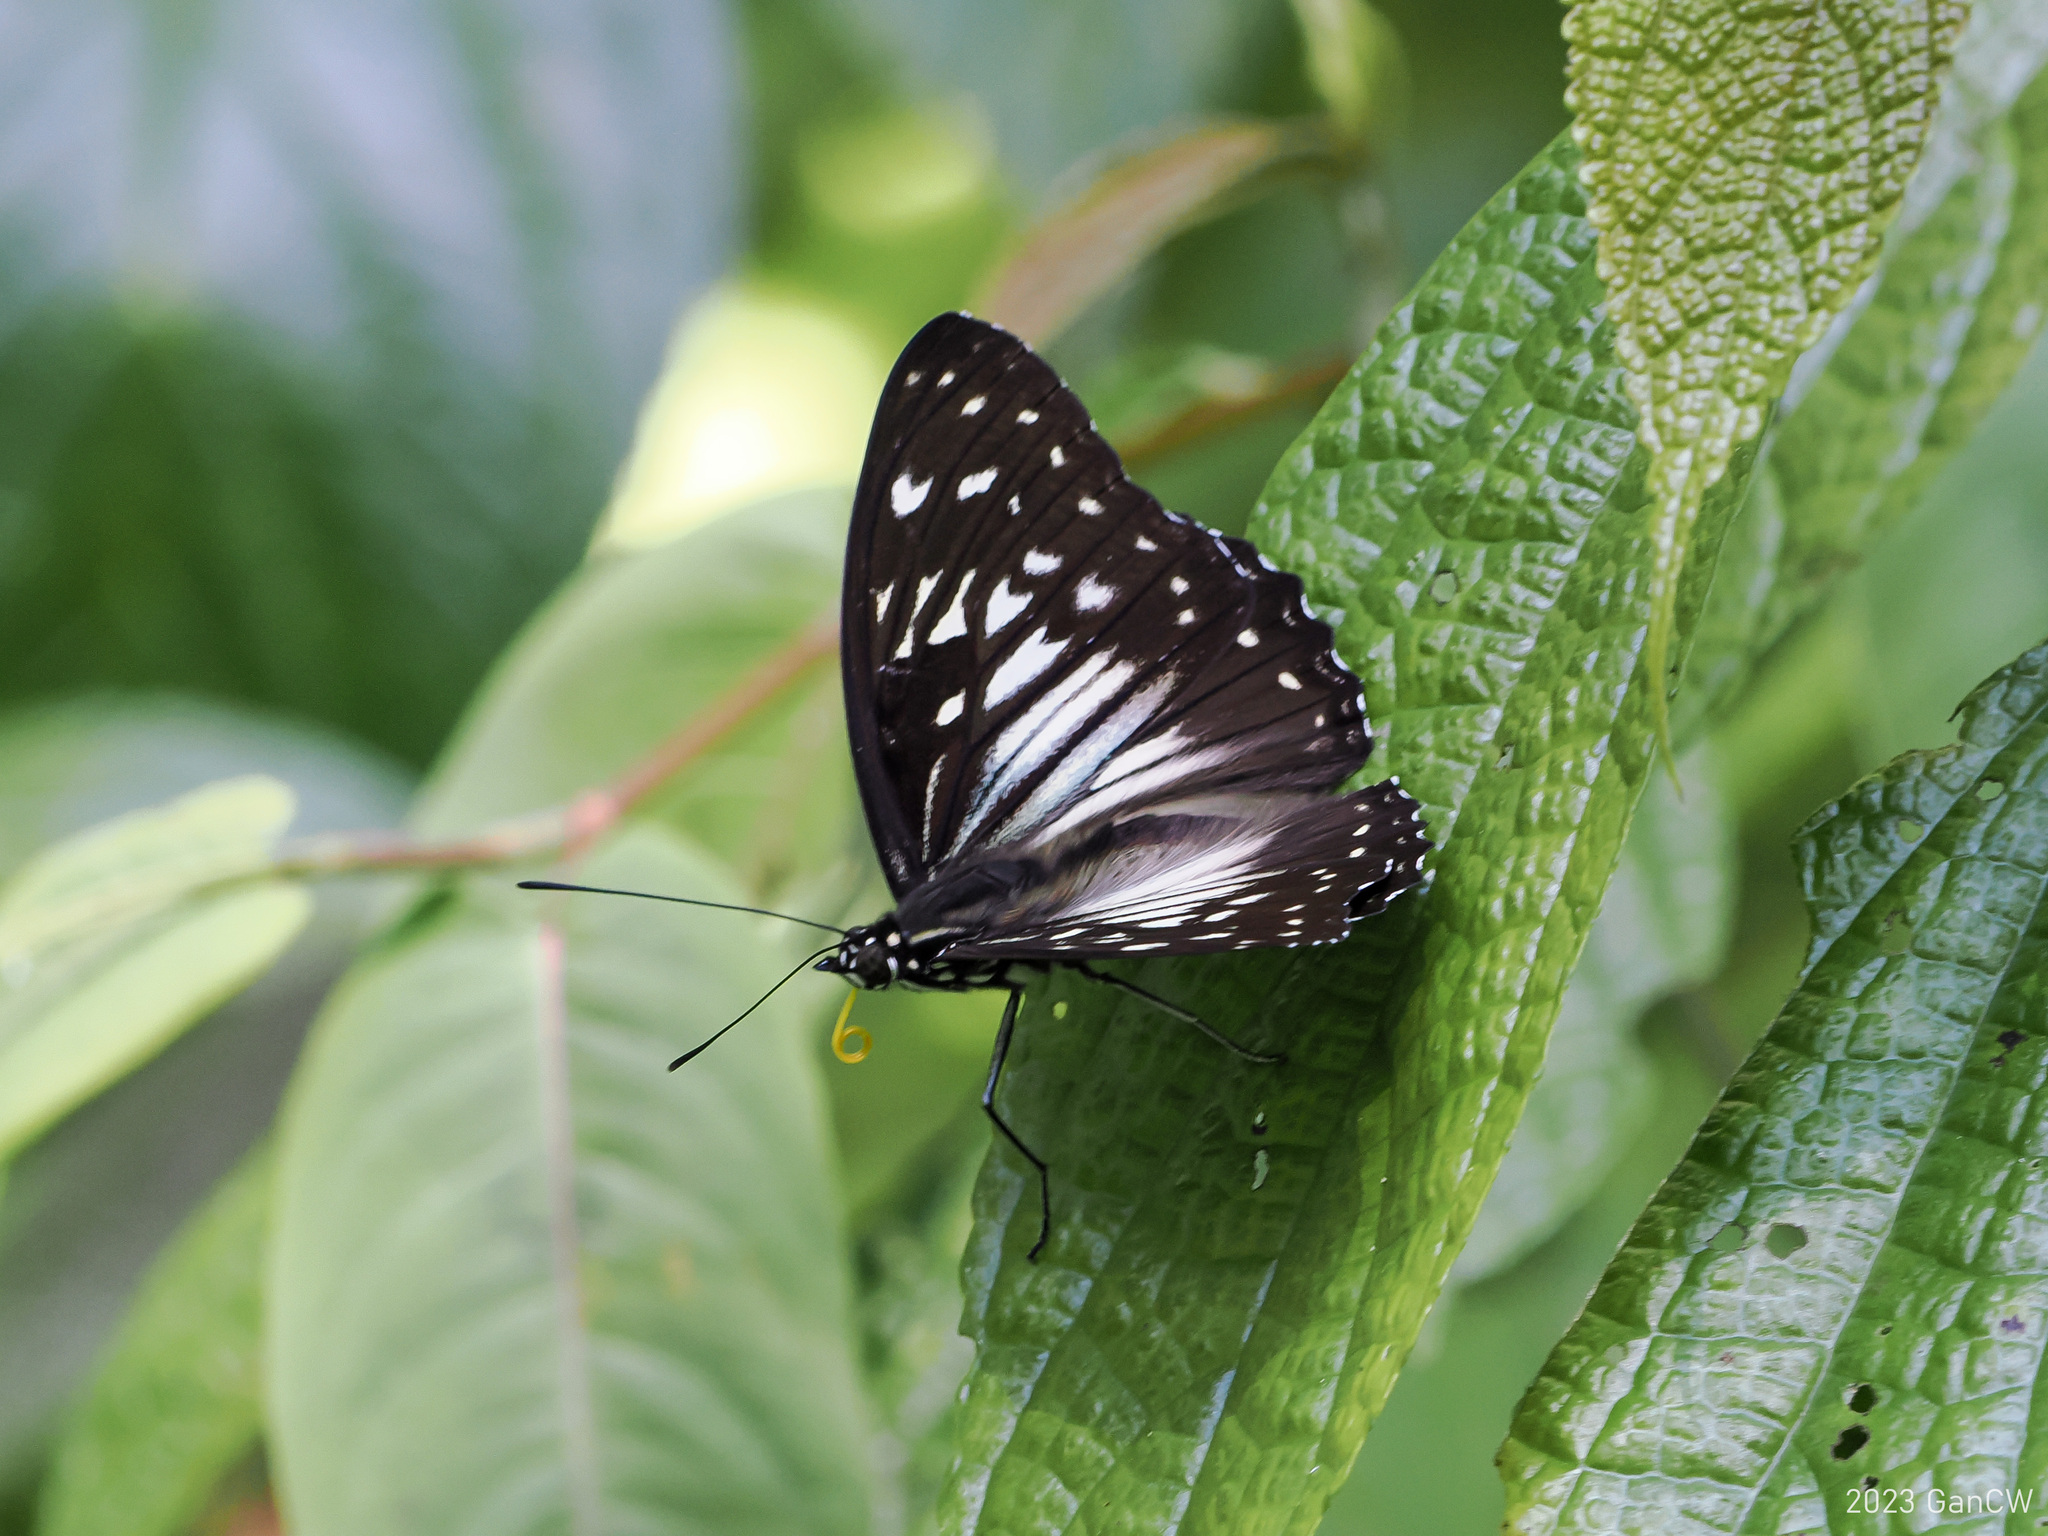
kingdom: Animalia
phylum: Arthropoda
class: Insecta
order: Lepidoptera
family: Nymphalidae
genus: Hestinalis
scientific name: Hestinalis divona
